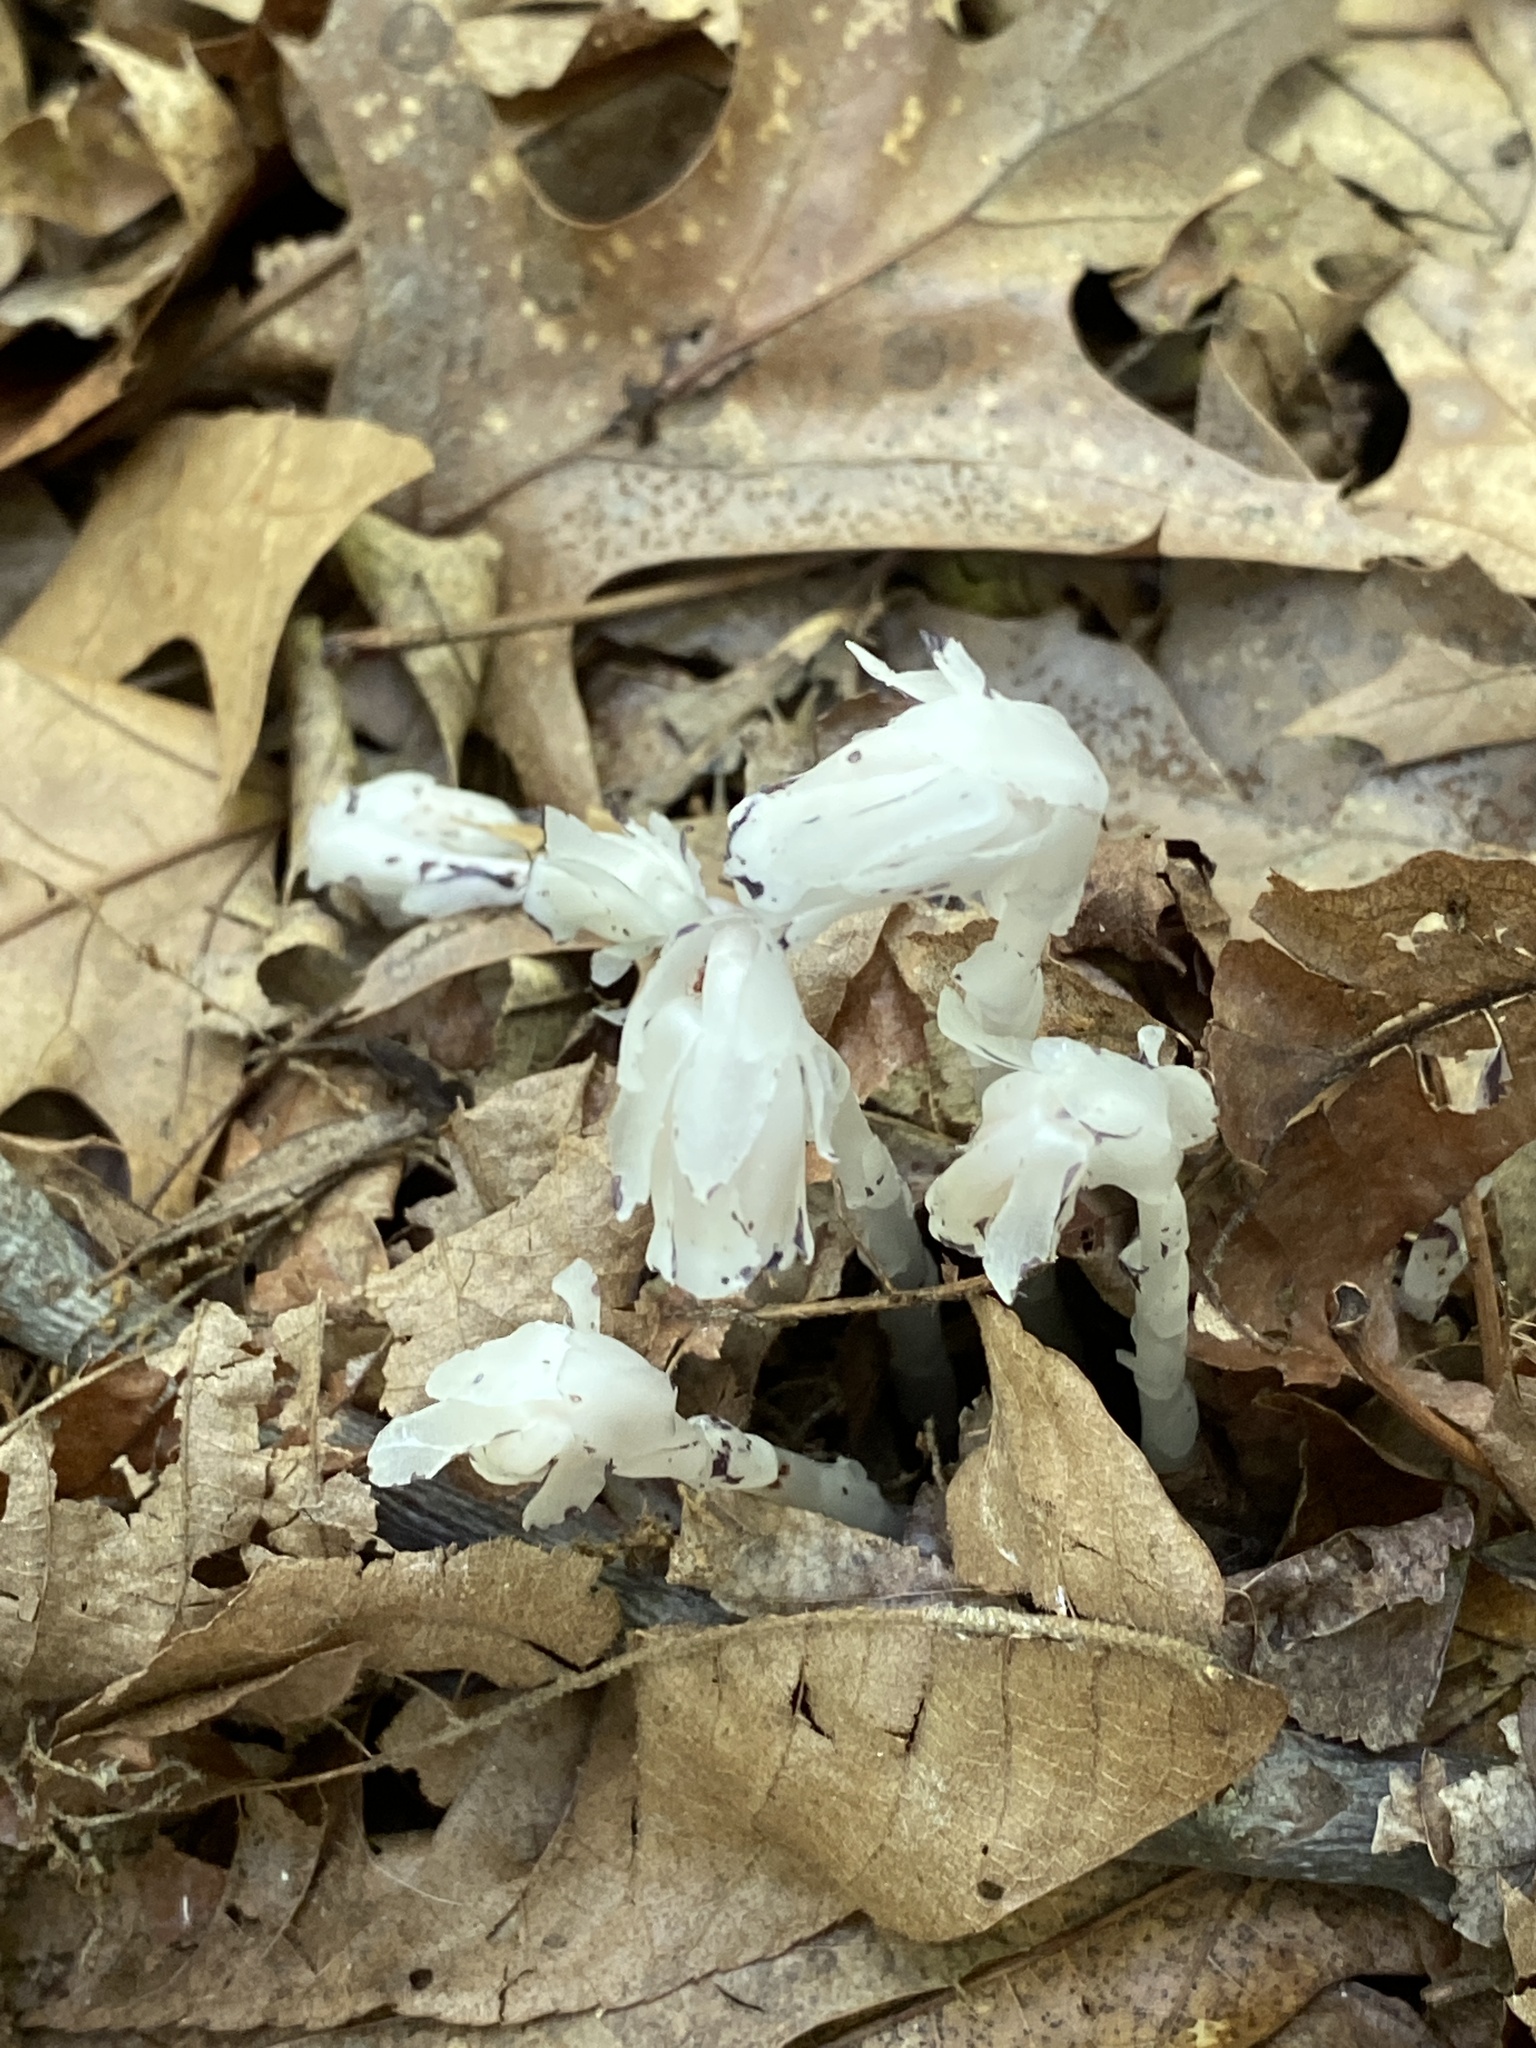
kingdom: Plantae
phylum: Tracheophyta
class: Magnoliopsida
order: Ericales
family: Ericaceae
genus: Monotropa
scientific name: Monotropa uniflora
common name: Convulsion root
